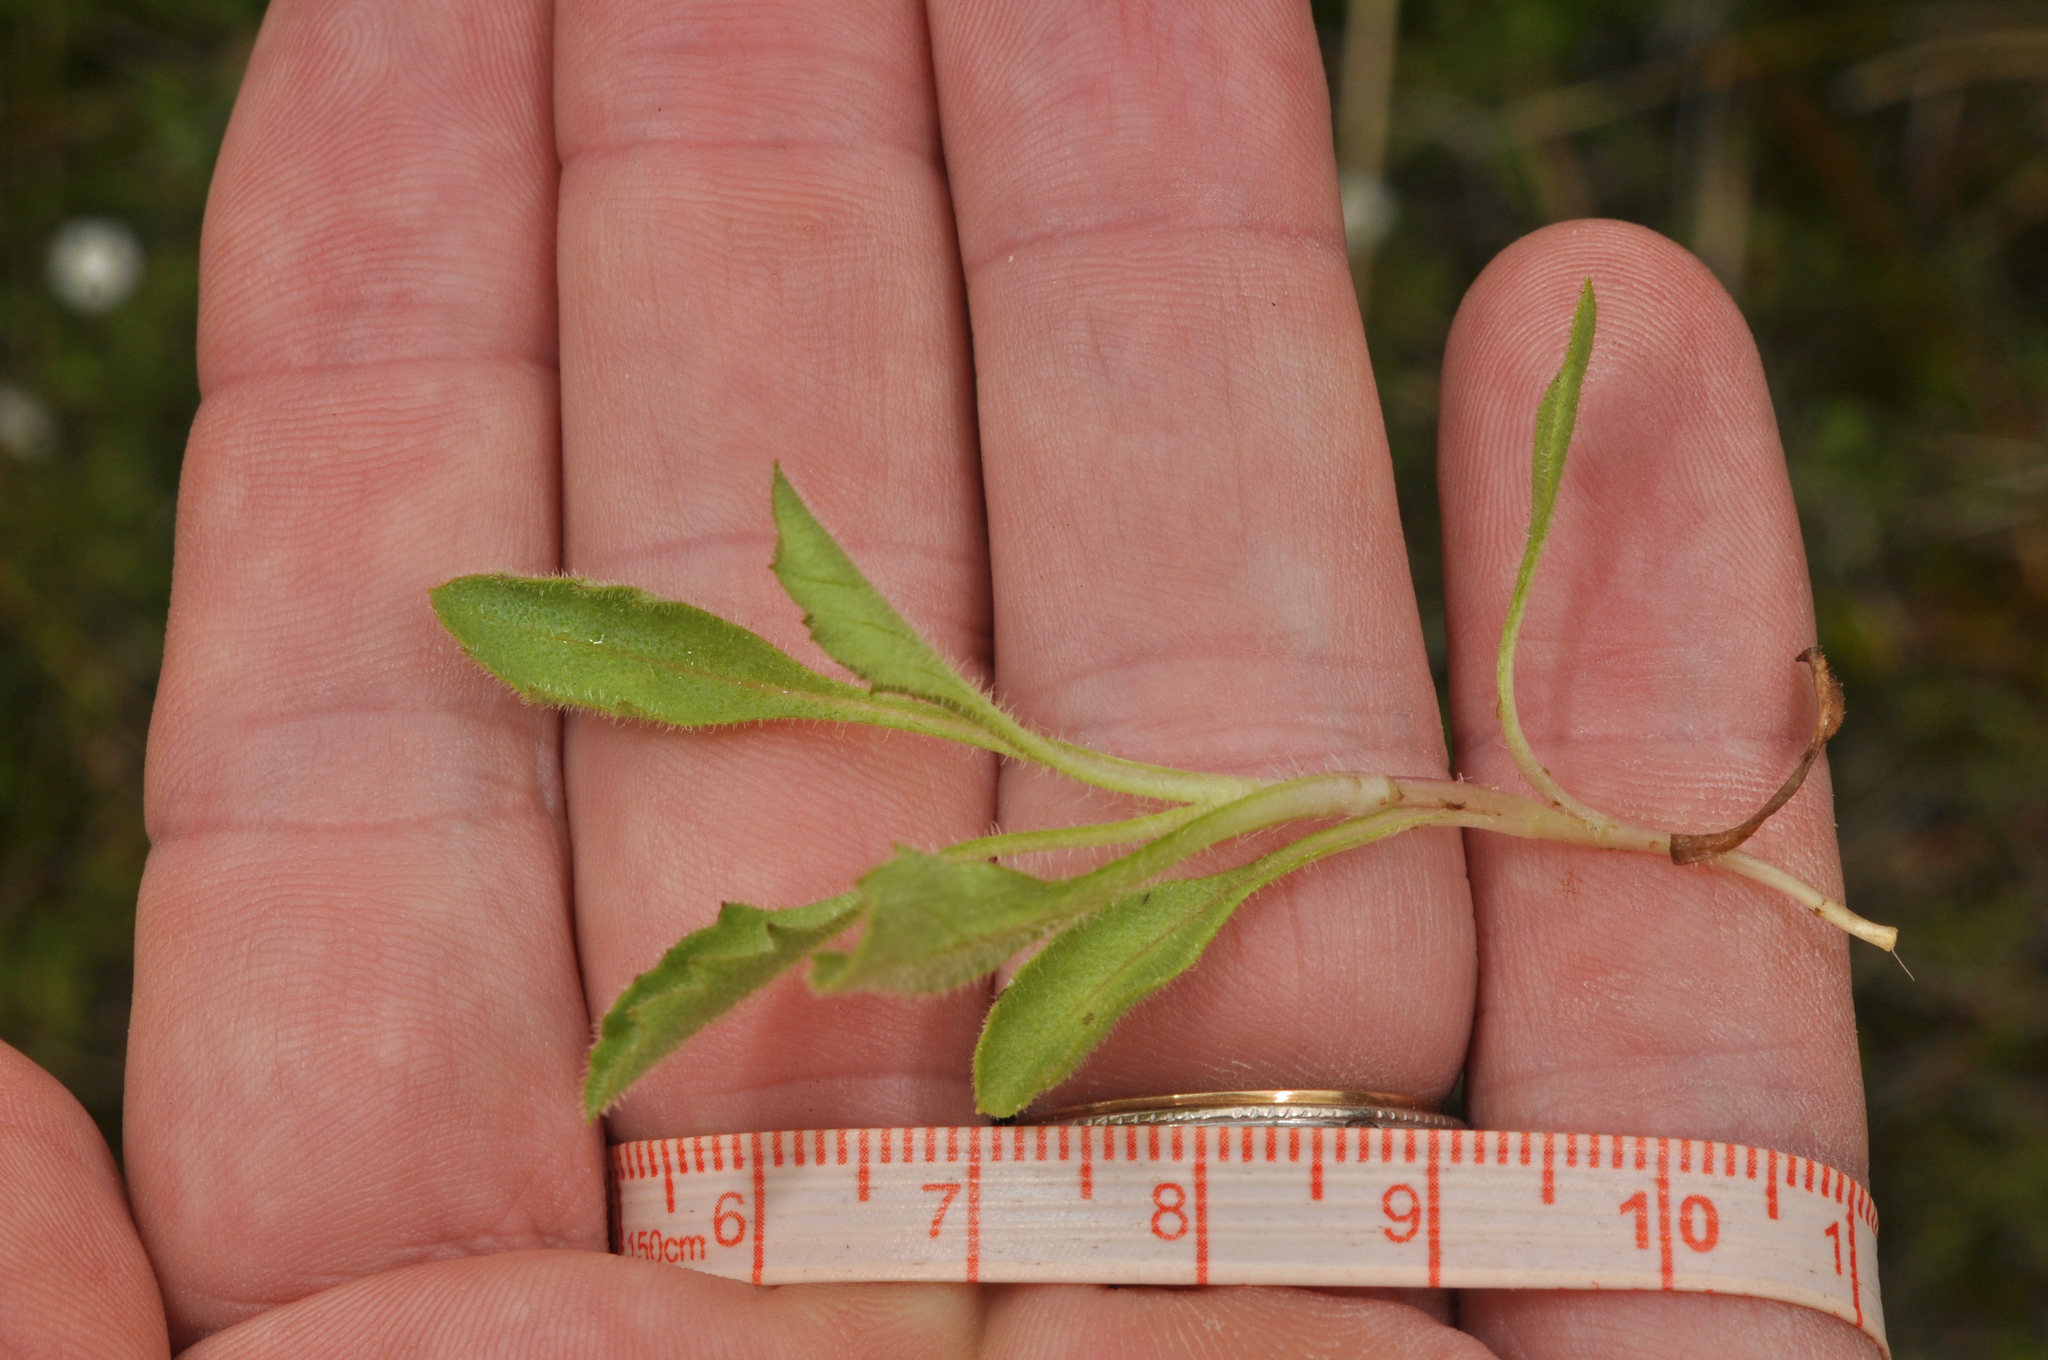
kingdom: Plantae
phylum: Tracheophyta
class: Magnoliopsida
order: Asterales
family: Asteraceae
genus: Lagenophora
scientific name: Lagenophora barkeri
